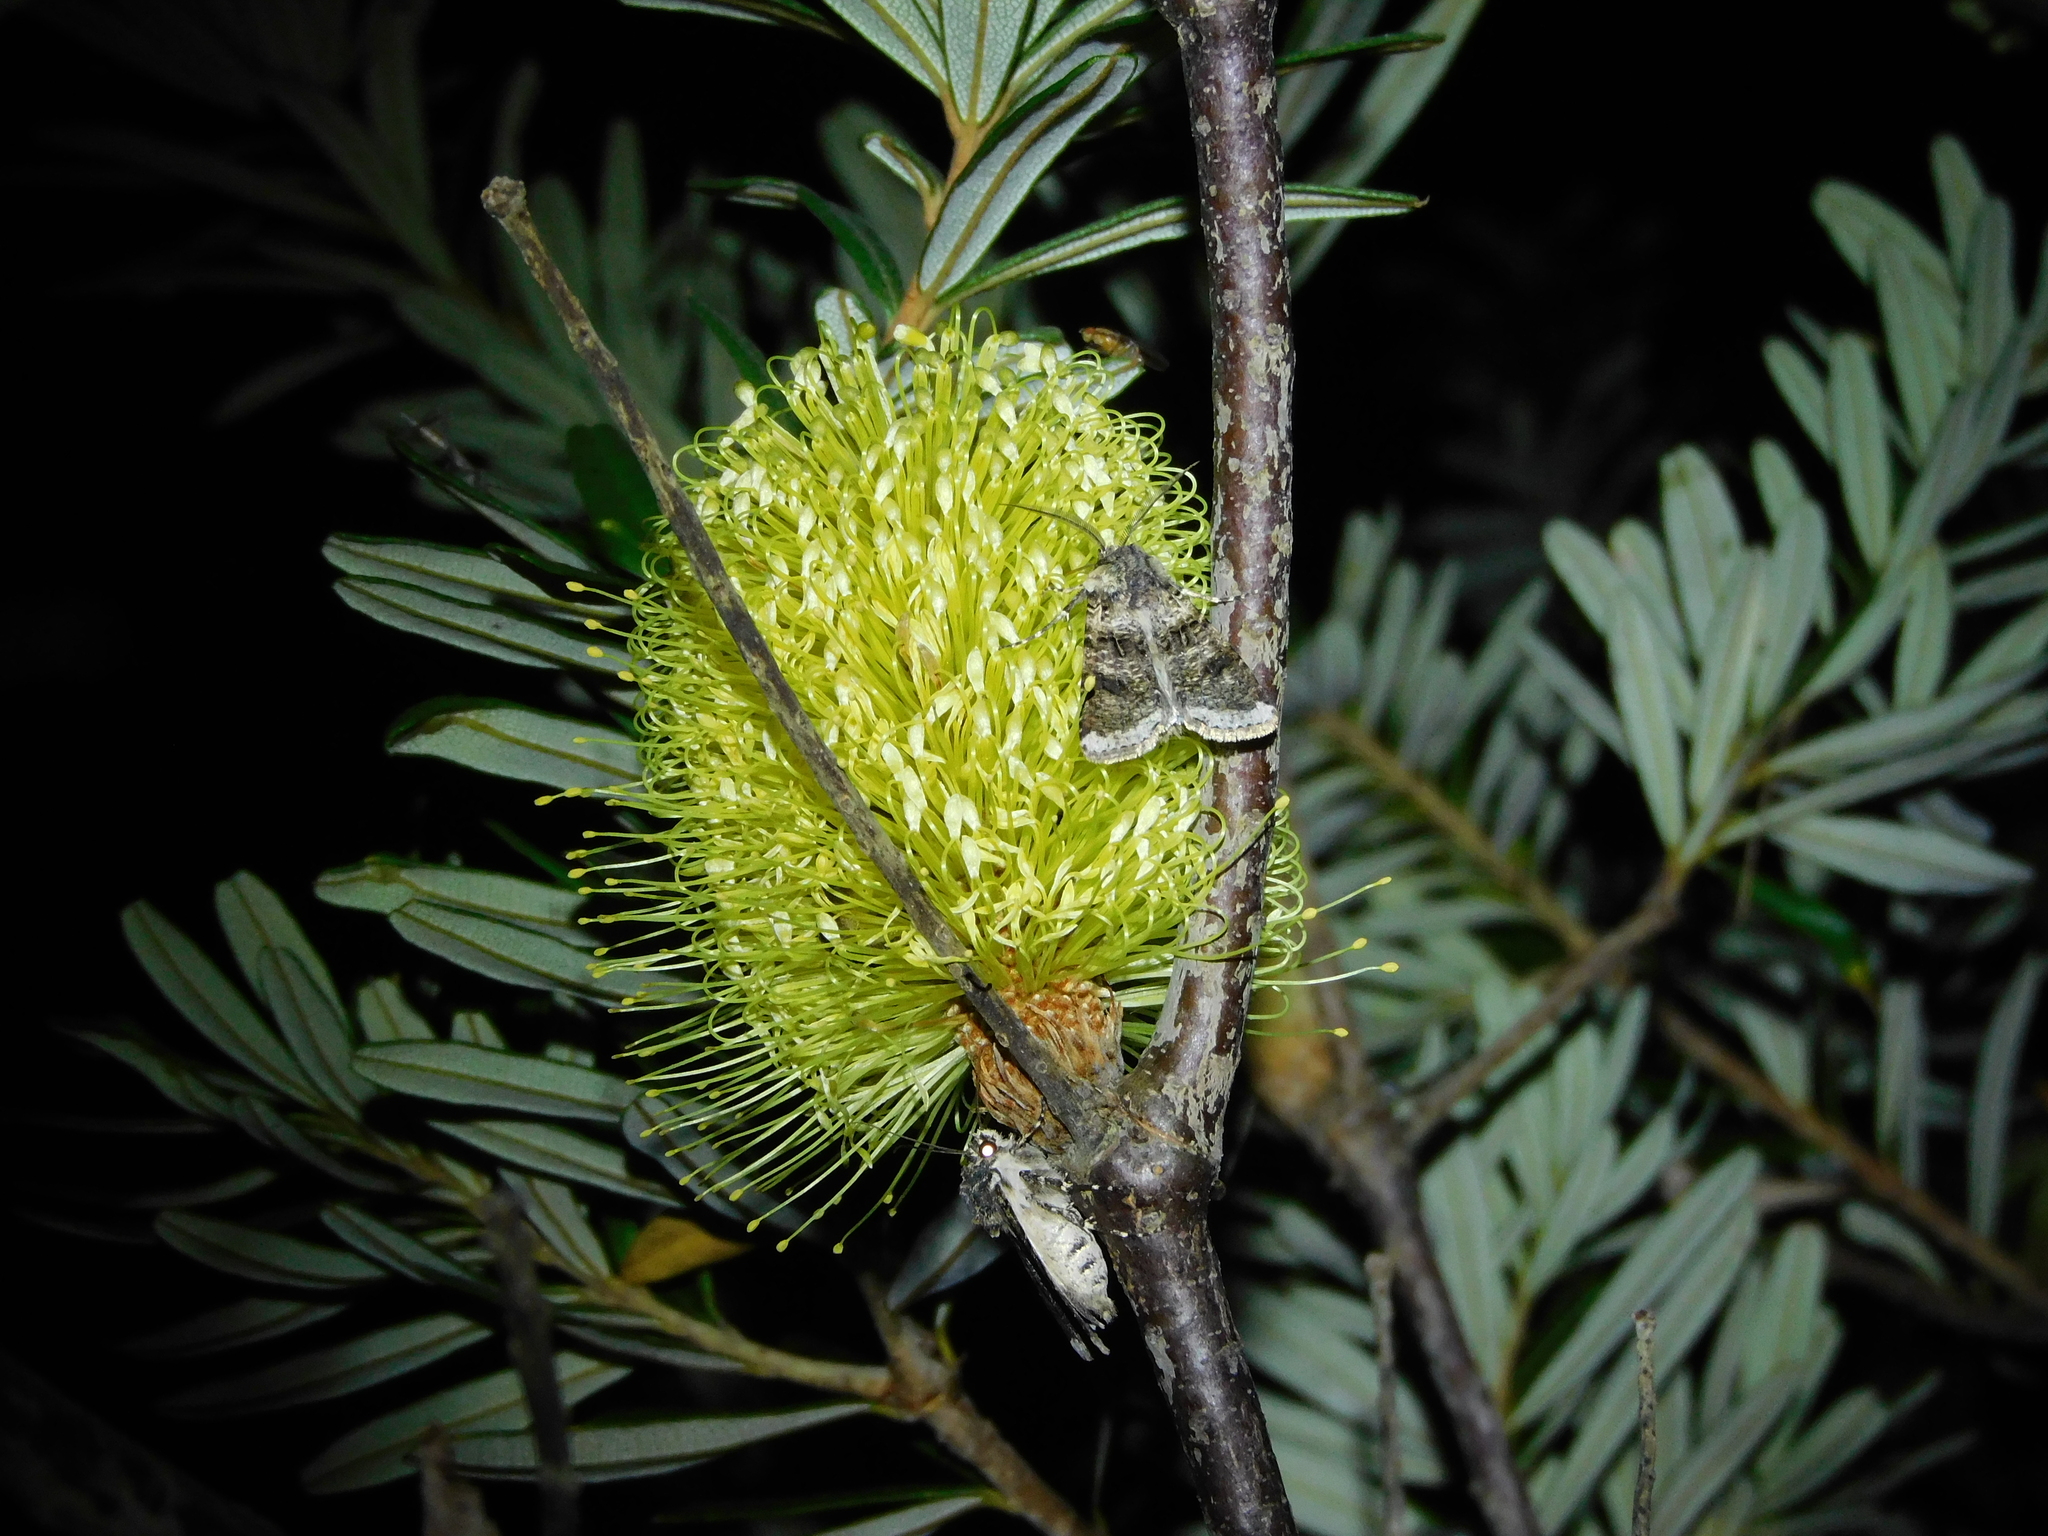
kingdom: Animalia
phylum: Arthropoda
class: Insecta
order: Lepidoptera
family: Noctuidae
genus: Agrotis
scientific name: Agrotis porphyricollis
